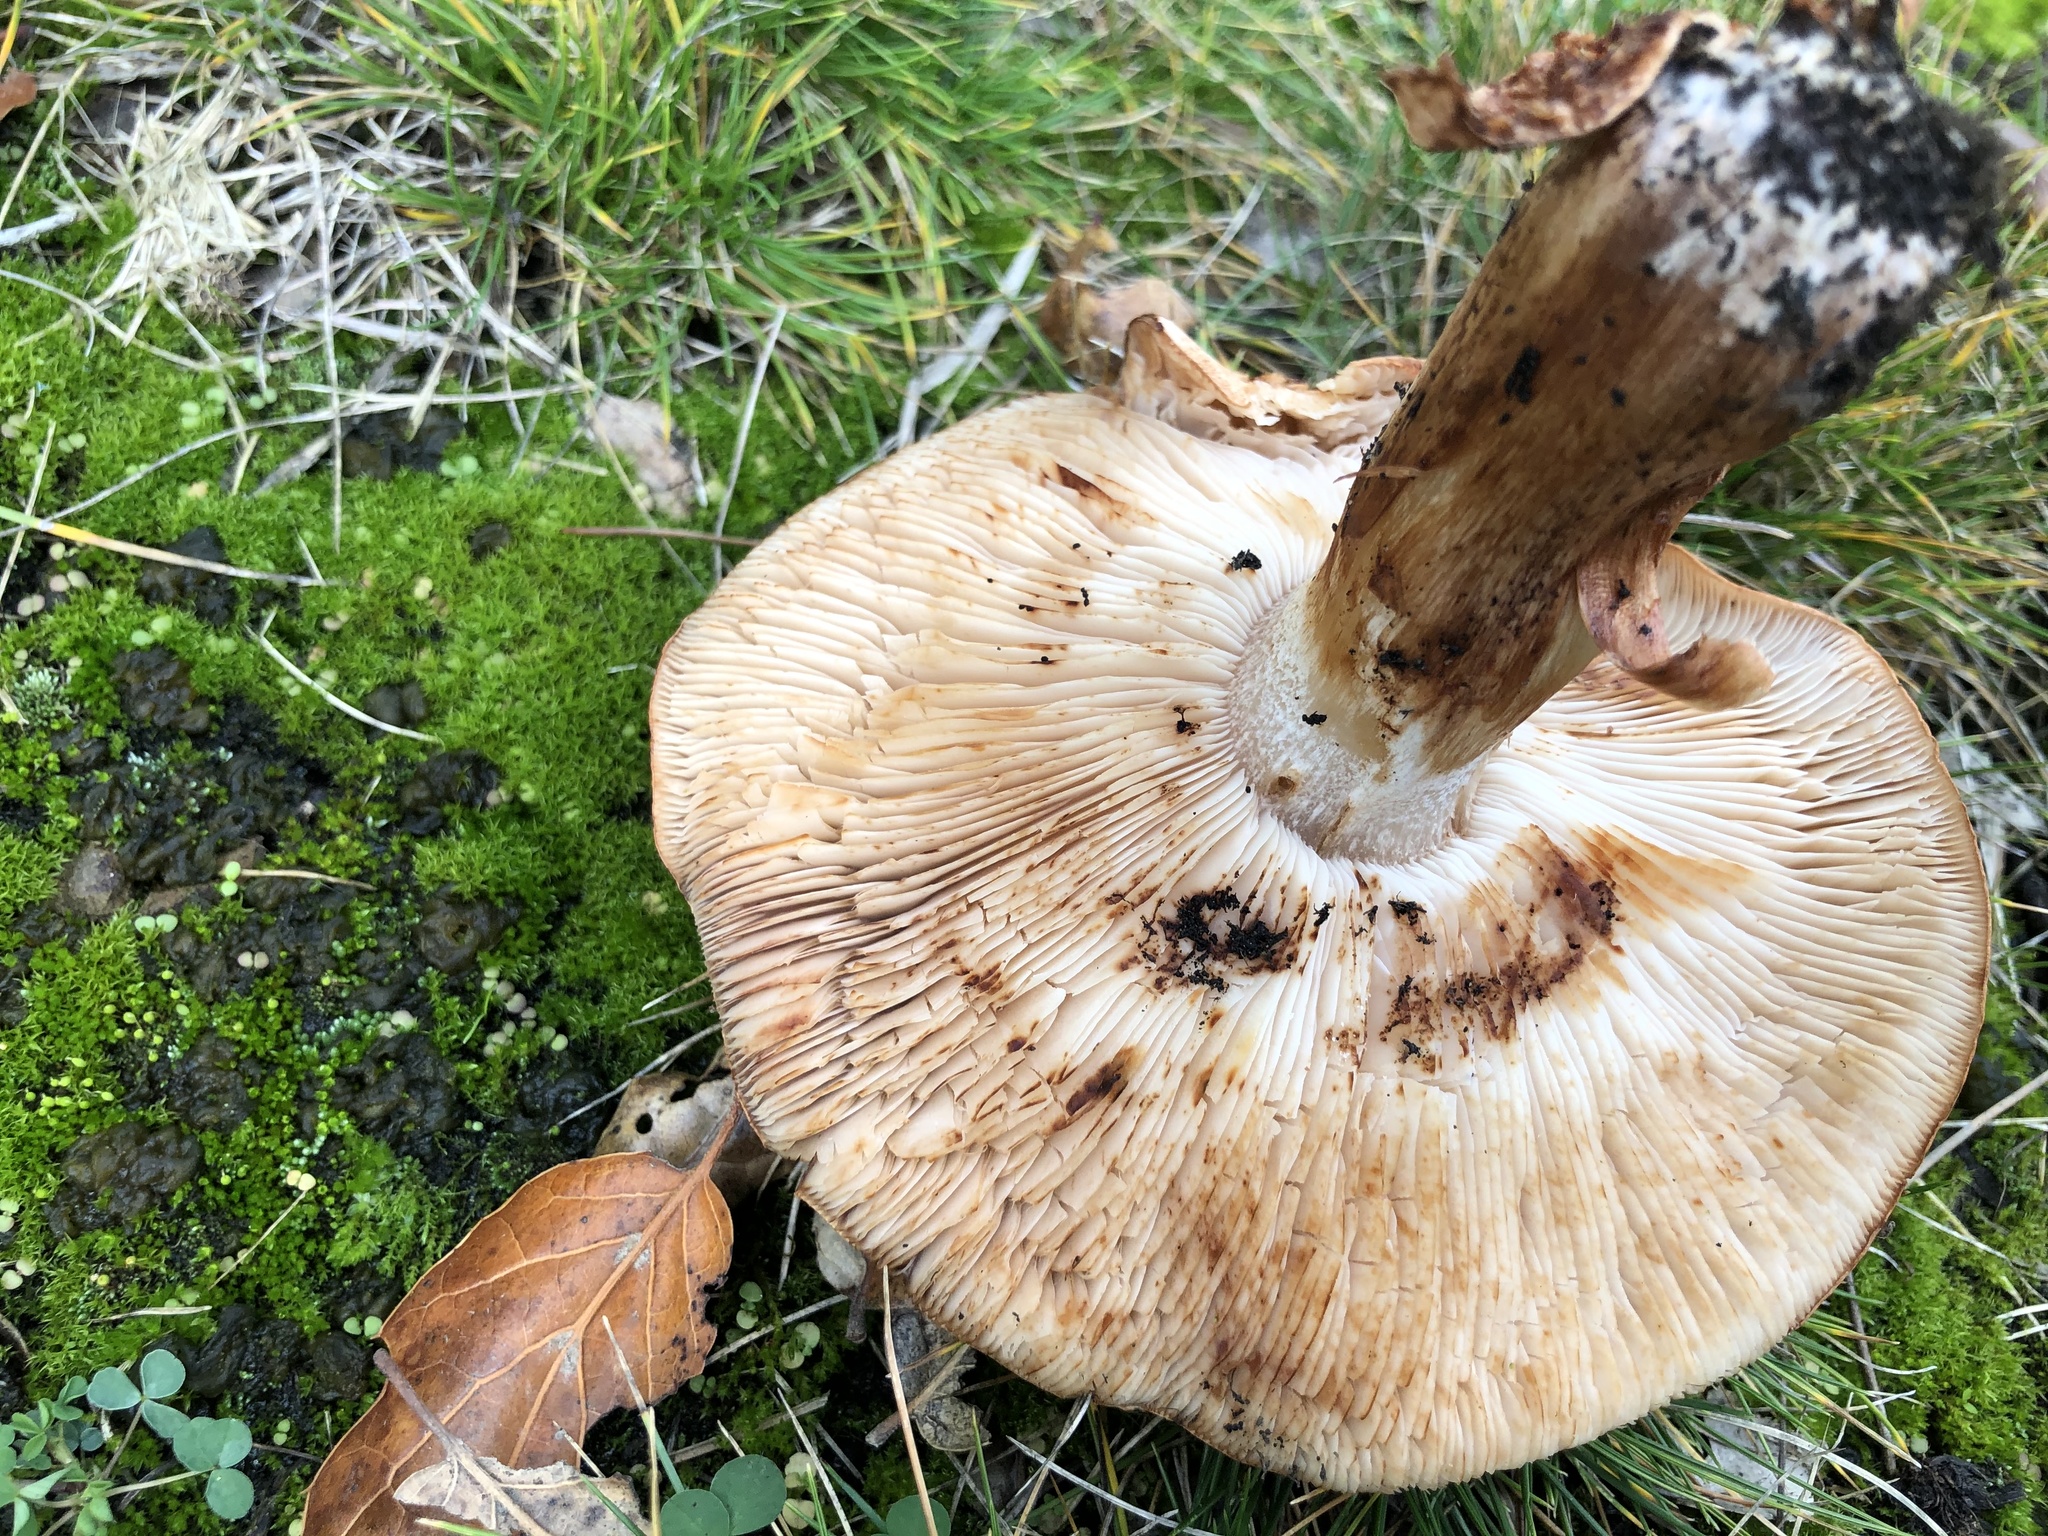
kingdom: Fungi
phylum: Basidiomycota
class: Agaricomycetes
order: Agaricales
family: Tricholomataceae
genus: Tricholoma
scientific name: Tricholoma fracticum
